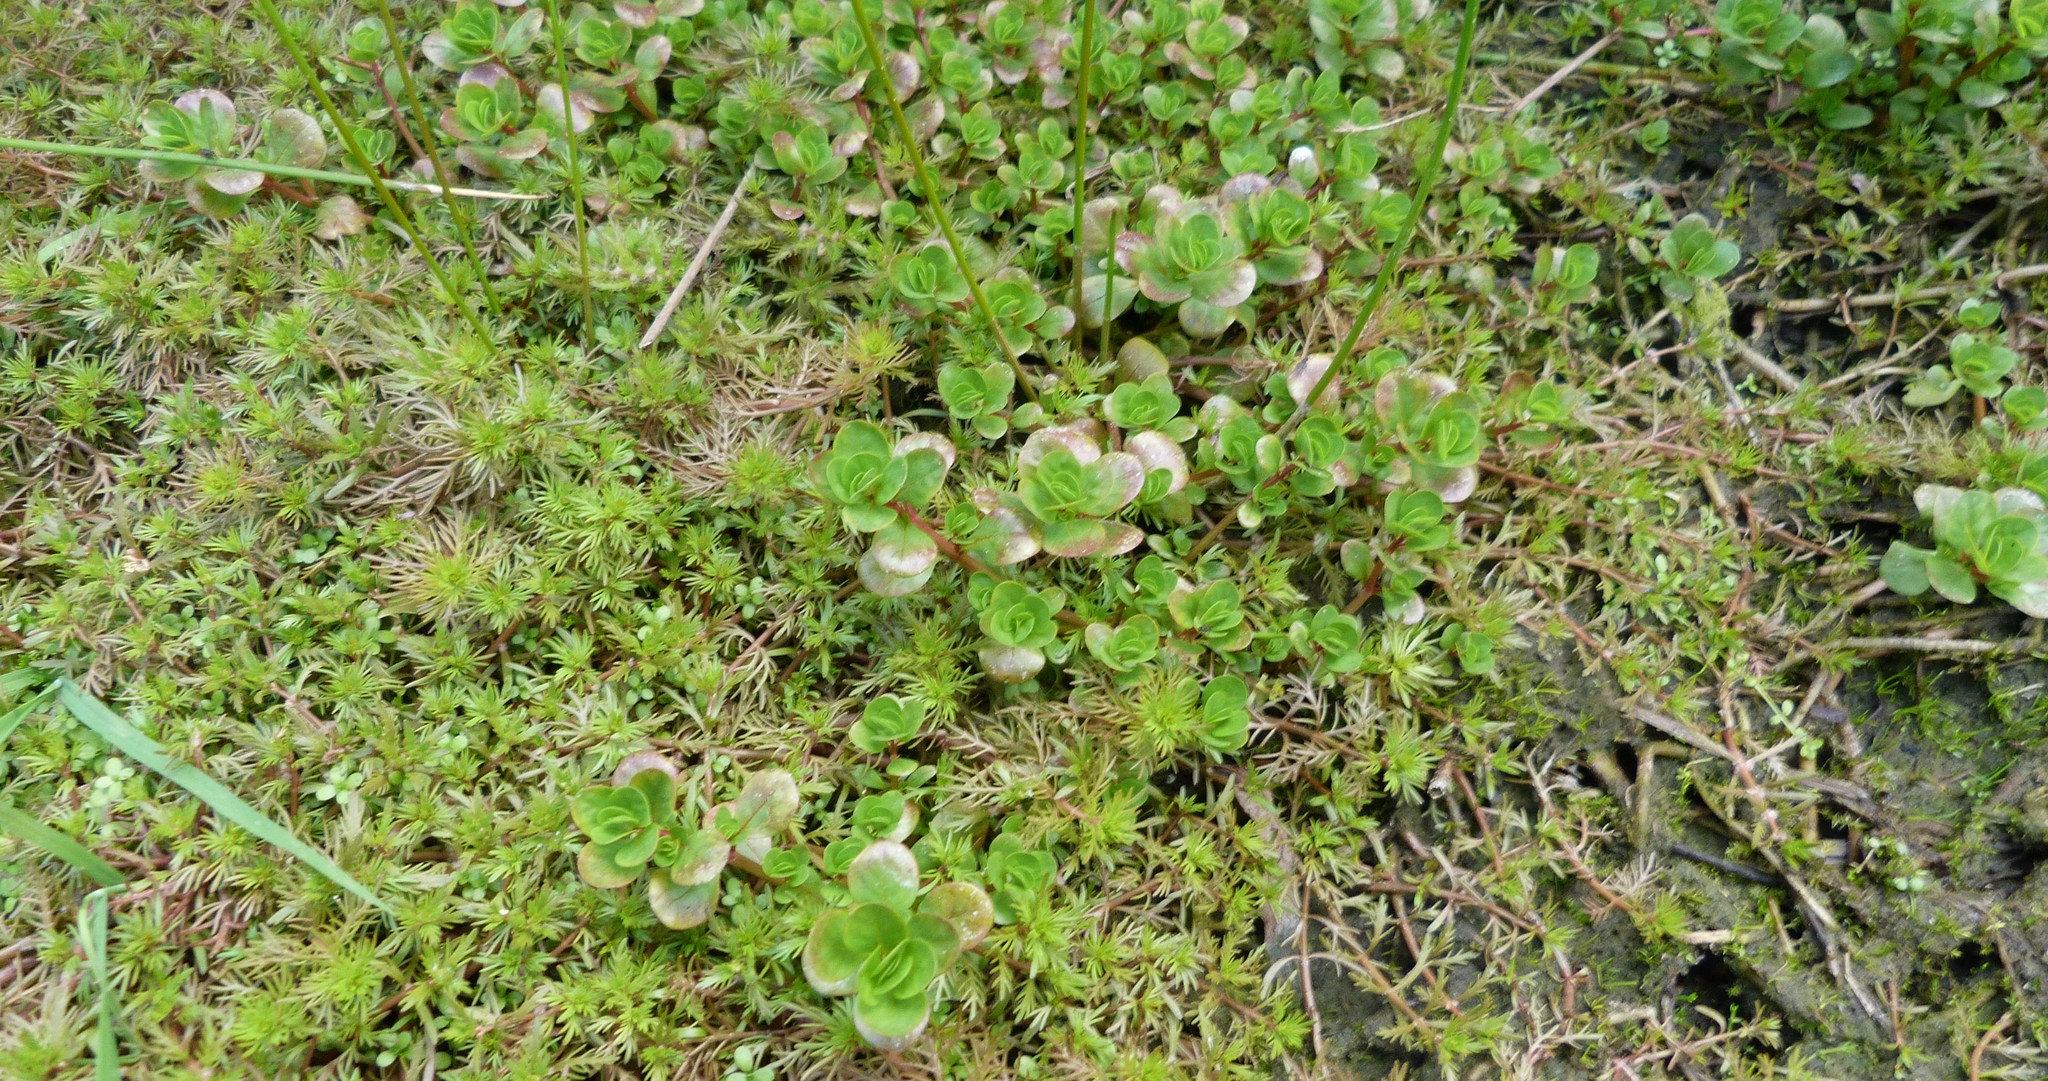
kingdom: Plantae
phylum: Tracheophyta
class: Magnoliopsida
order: Myrtales
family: Lythraceae
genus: Lythrum
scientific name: Lythrum portula
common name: Water purslane
